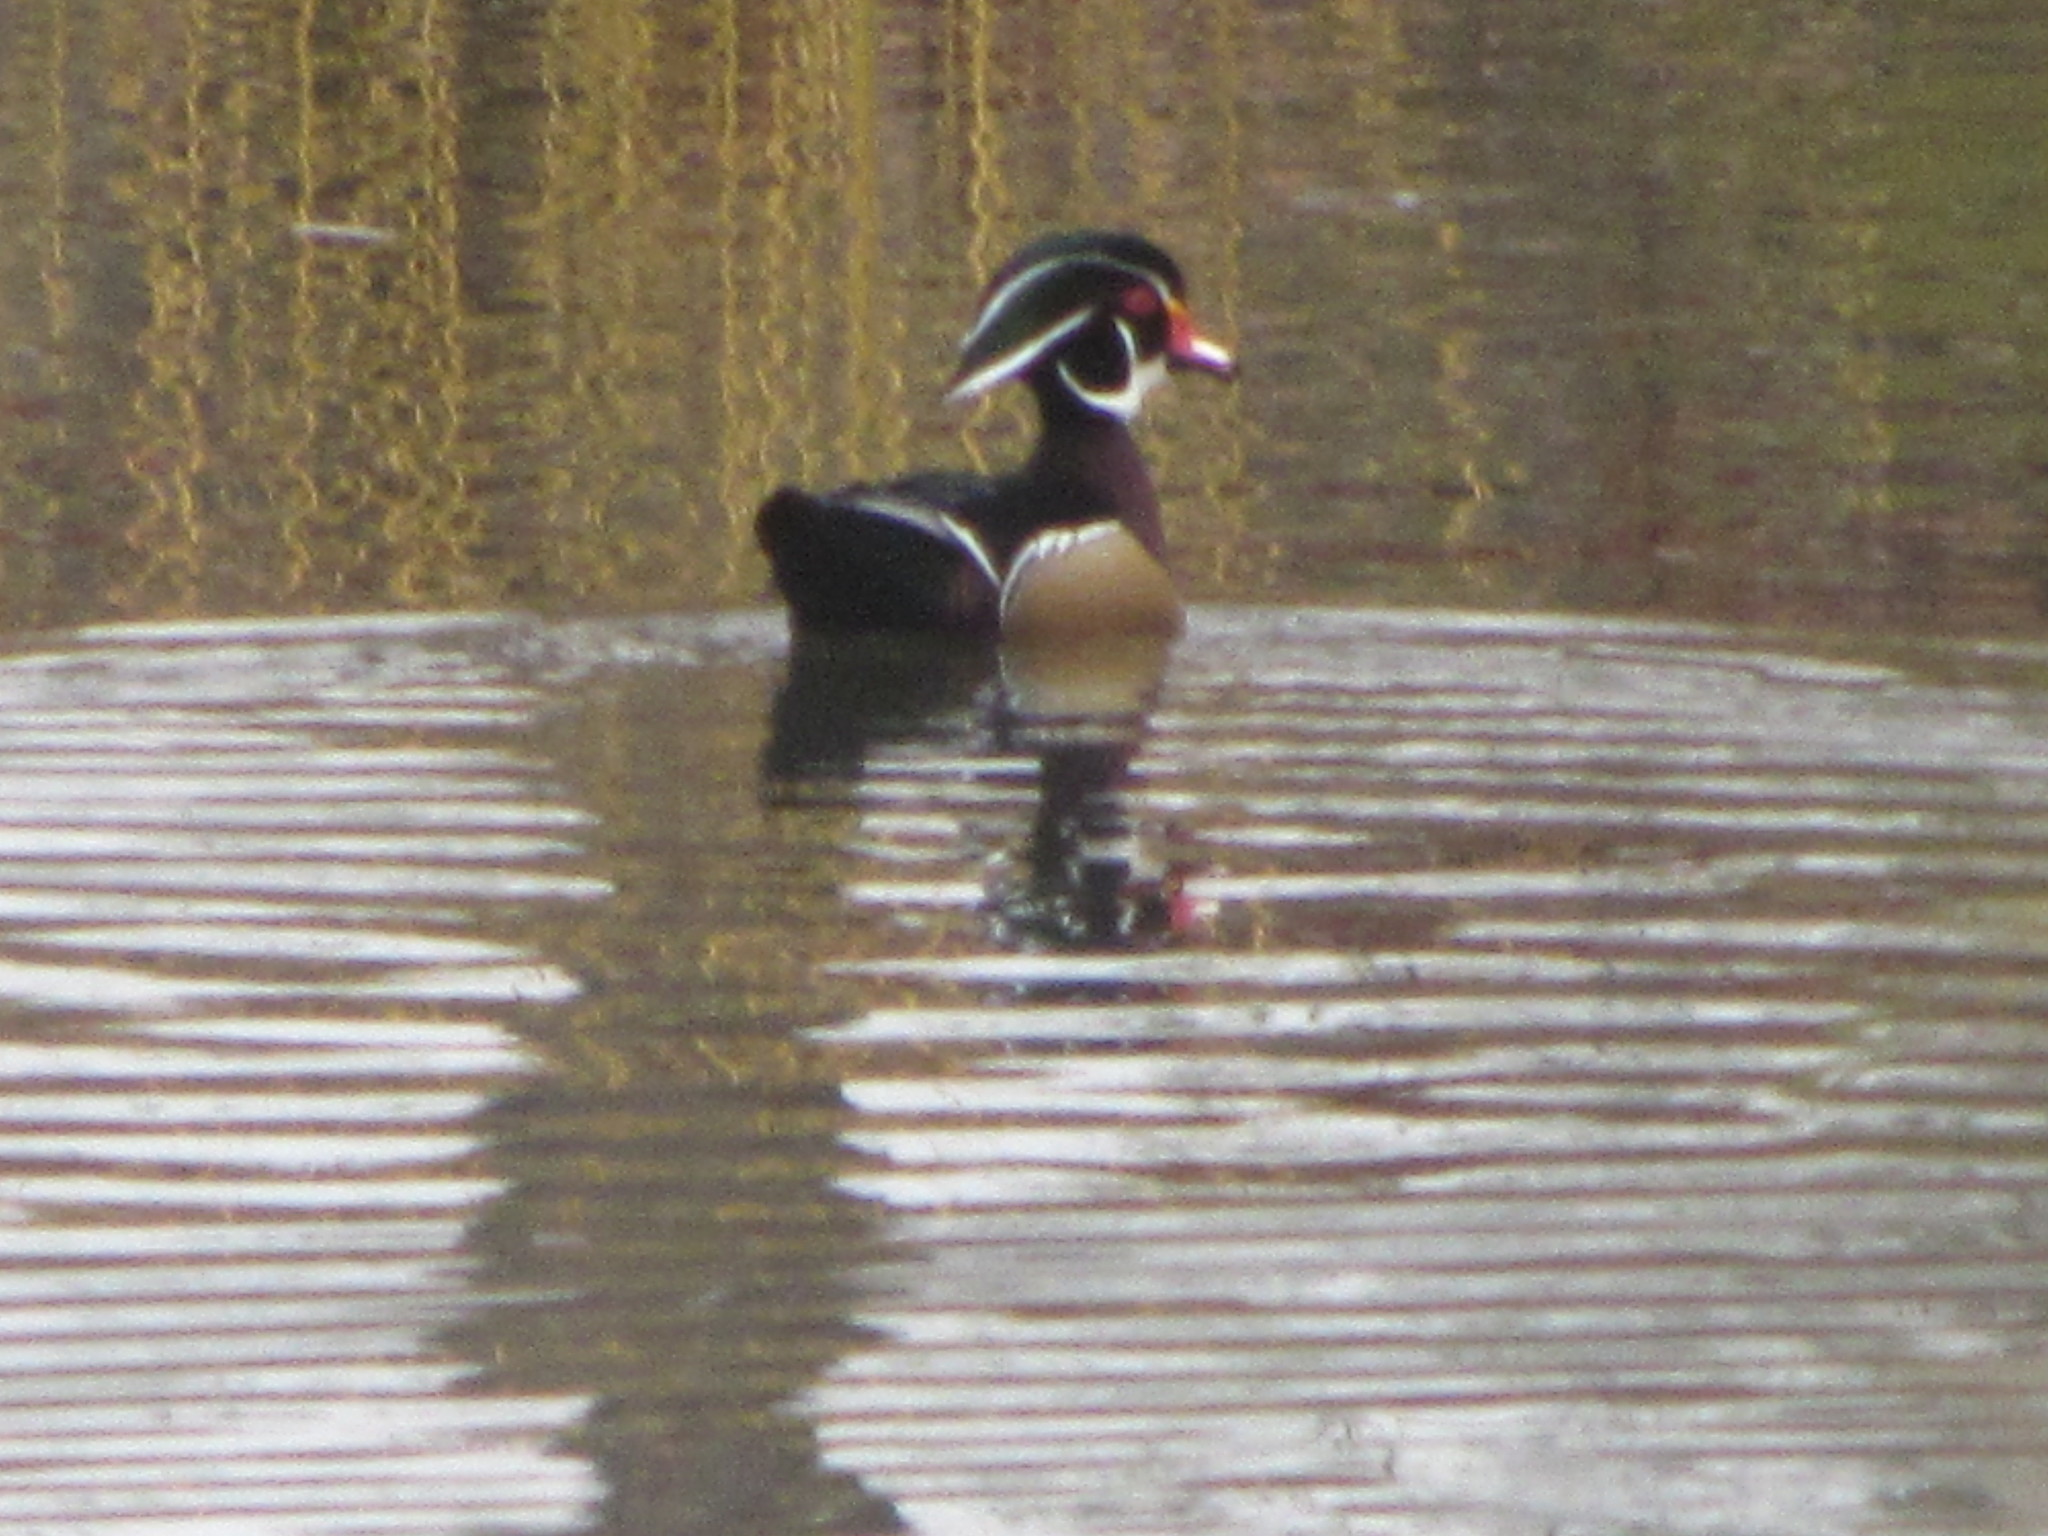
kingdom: Animalia
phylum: Chordata
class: Aves
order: Anseriformes
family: Anatidae
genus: Aix
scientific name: Aix sponsa
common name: Wood duck
